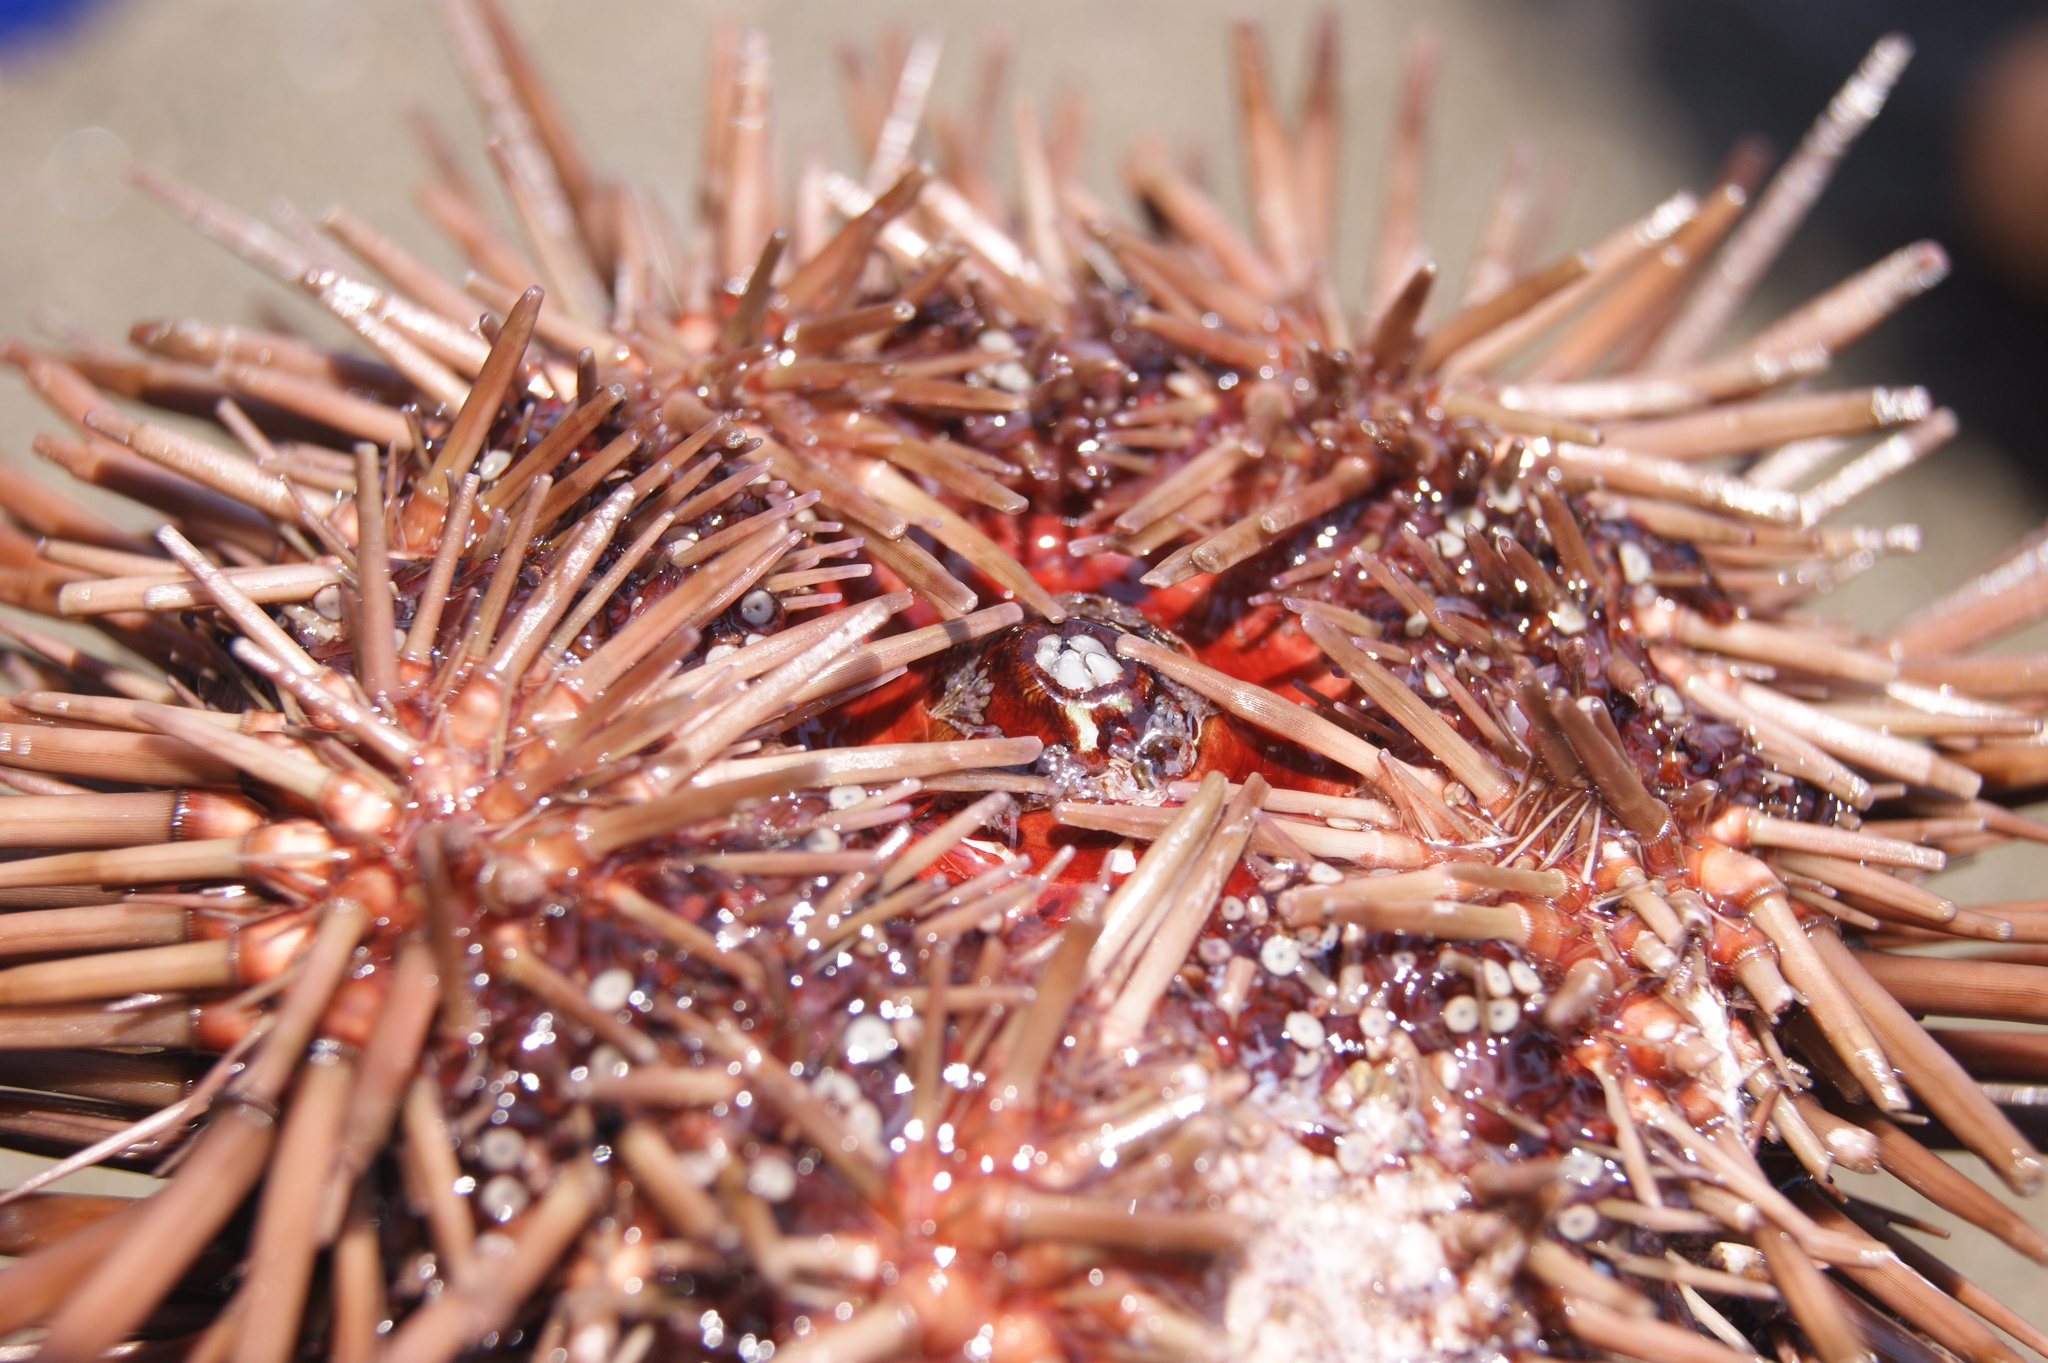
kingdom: Animalia
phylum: Echinodermata
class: Echinoidea
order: Arbacioida
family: Arbaciidae
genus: Arbacia
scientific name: Arbacia punctulata
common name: Purple-spined sea urchin
